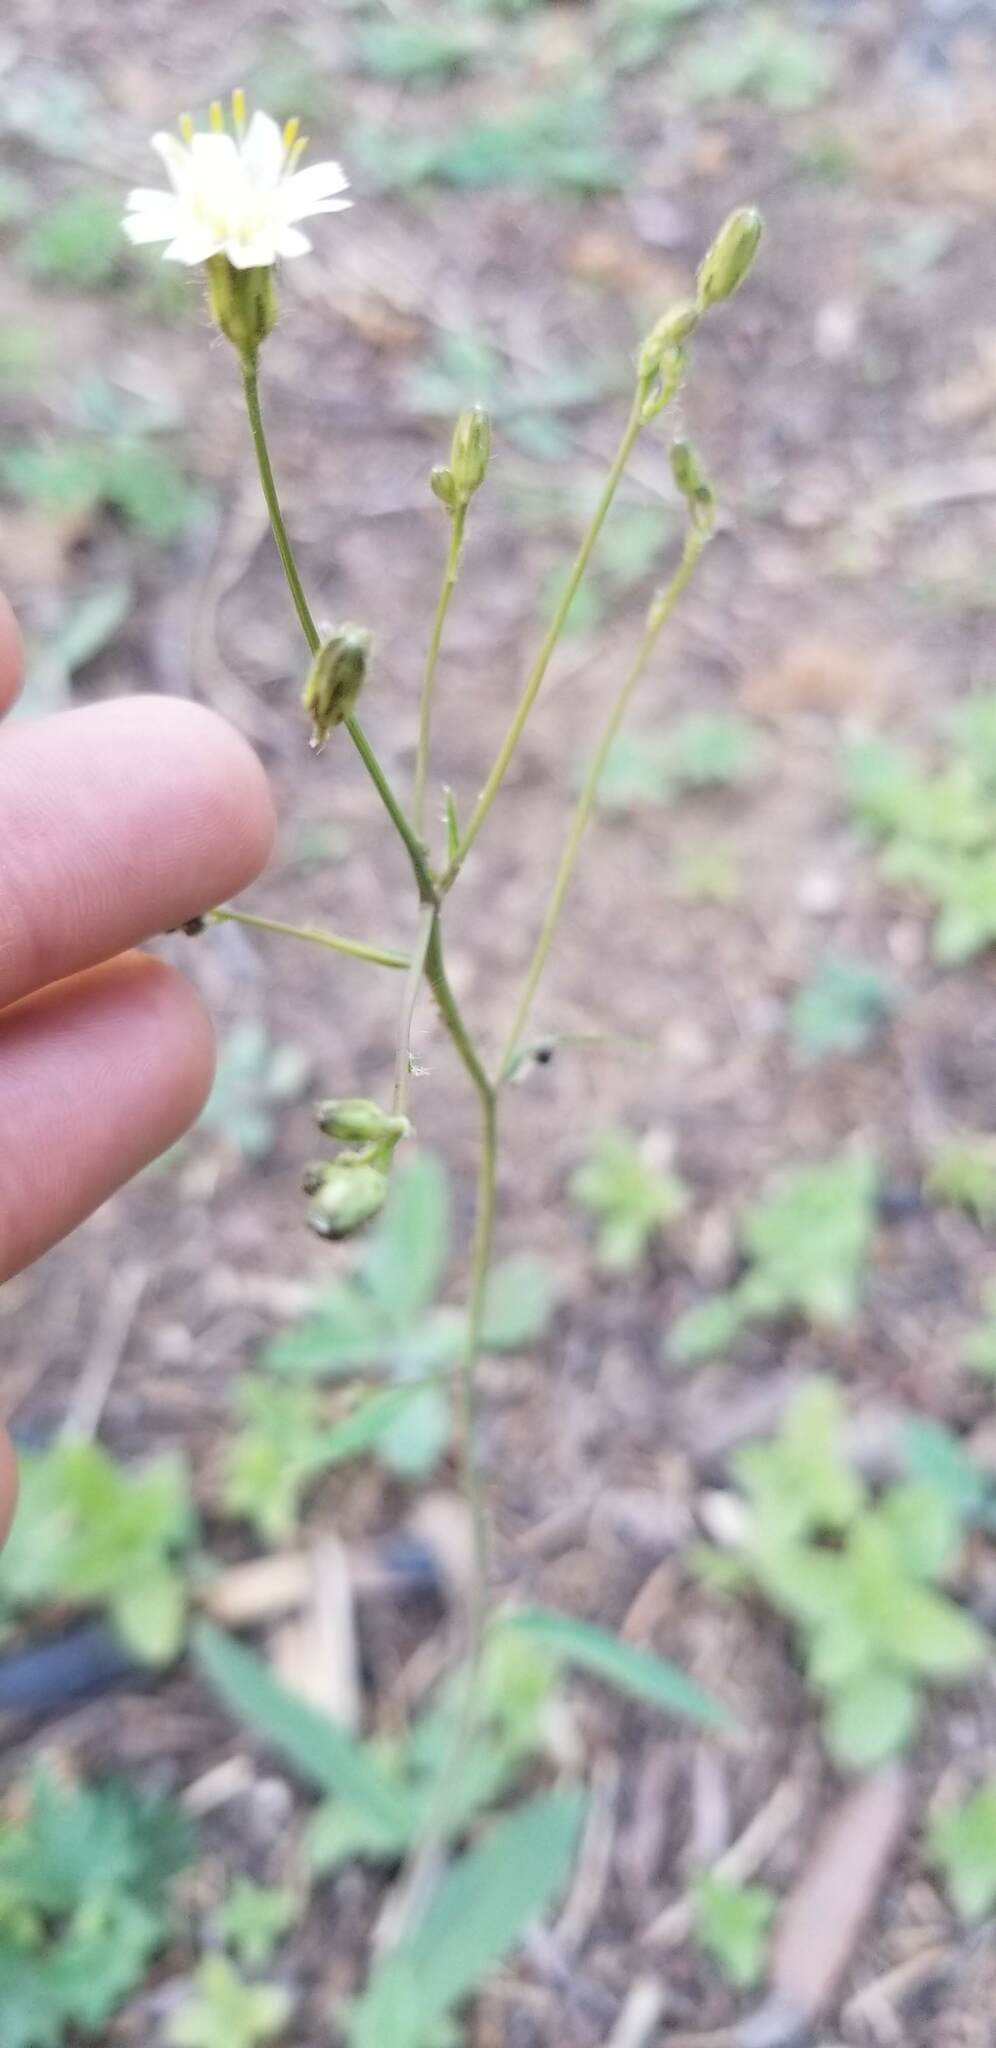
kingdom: Plantae
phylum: Tracheophyta
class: Magnoliopsida
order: Asterales
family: Asteraceae
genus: Hieracium
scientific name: Hieracium albiflorum
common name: White hawkweed
